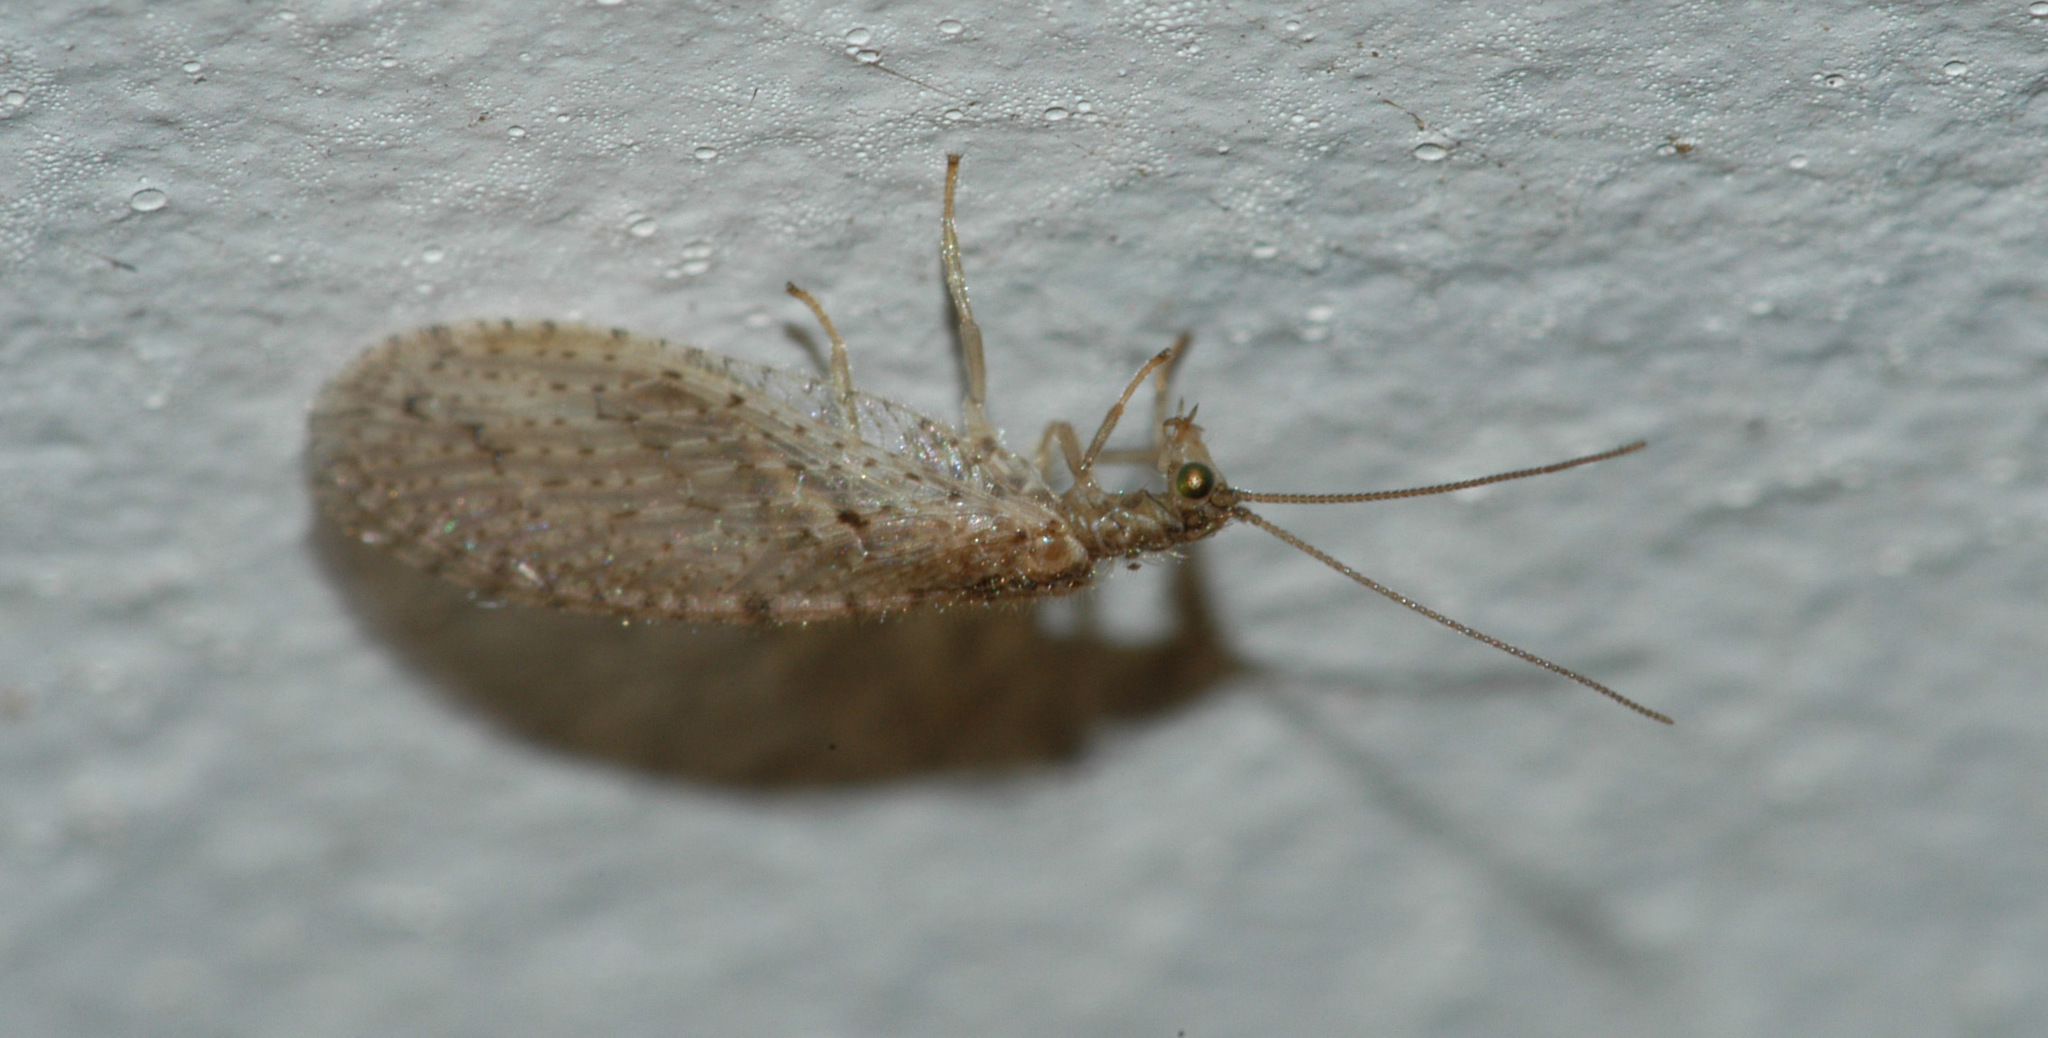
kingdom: Animalia
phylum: Arthropoda
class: Insecta
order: Neuroptera
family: Hemerobiidae
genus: Micromus
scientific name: Micromus tasmaniae
